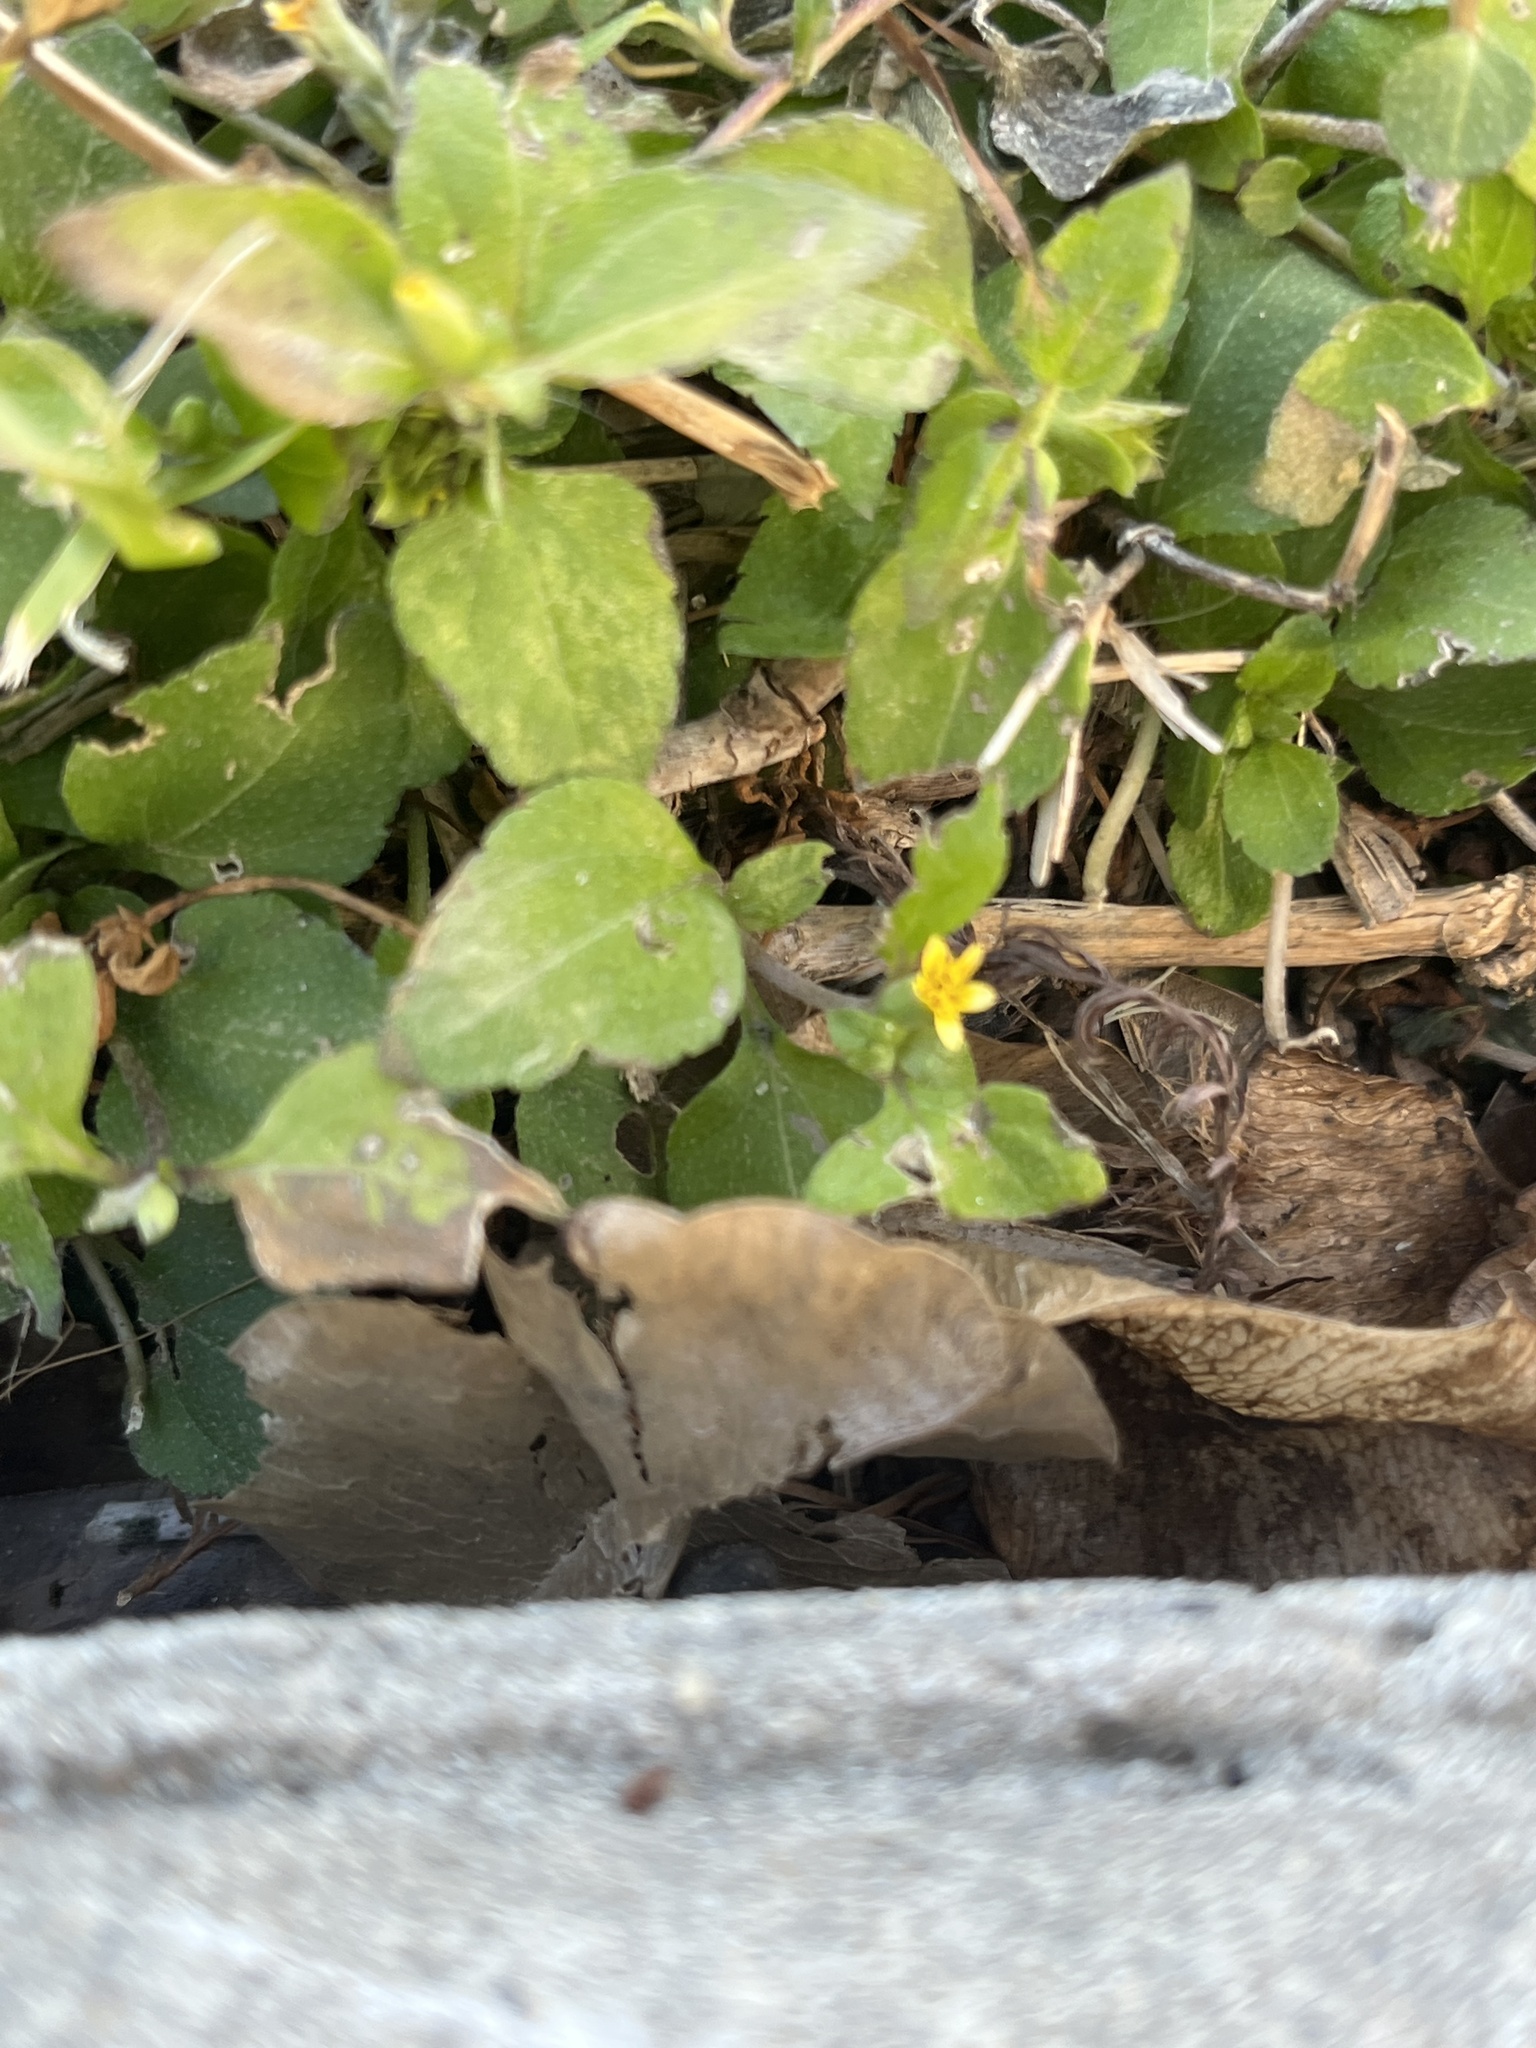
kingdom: Plantae
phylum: Tracheophyta
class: Magnoliopsida
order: Asterales
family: Asteraceae
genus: Calyptocarpus
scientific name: Calyptocarpus vialis
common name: Straggler daisy
